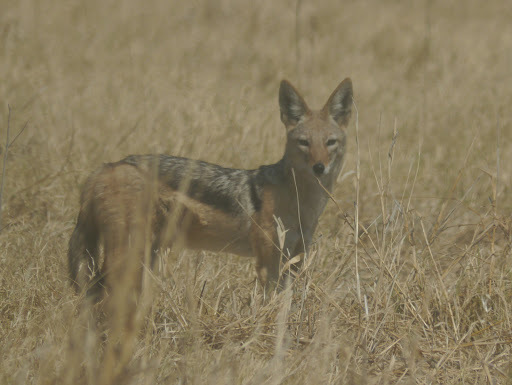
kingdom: Animalia
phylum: Chordata
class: Mammalia
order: Carnivora
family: Canidae
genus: Lupulella
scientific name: Lupulella
